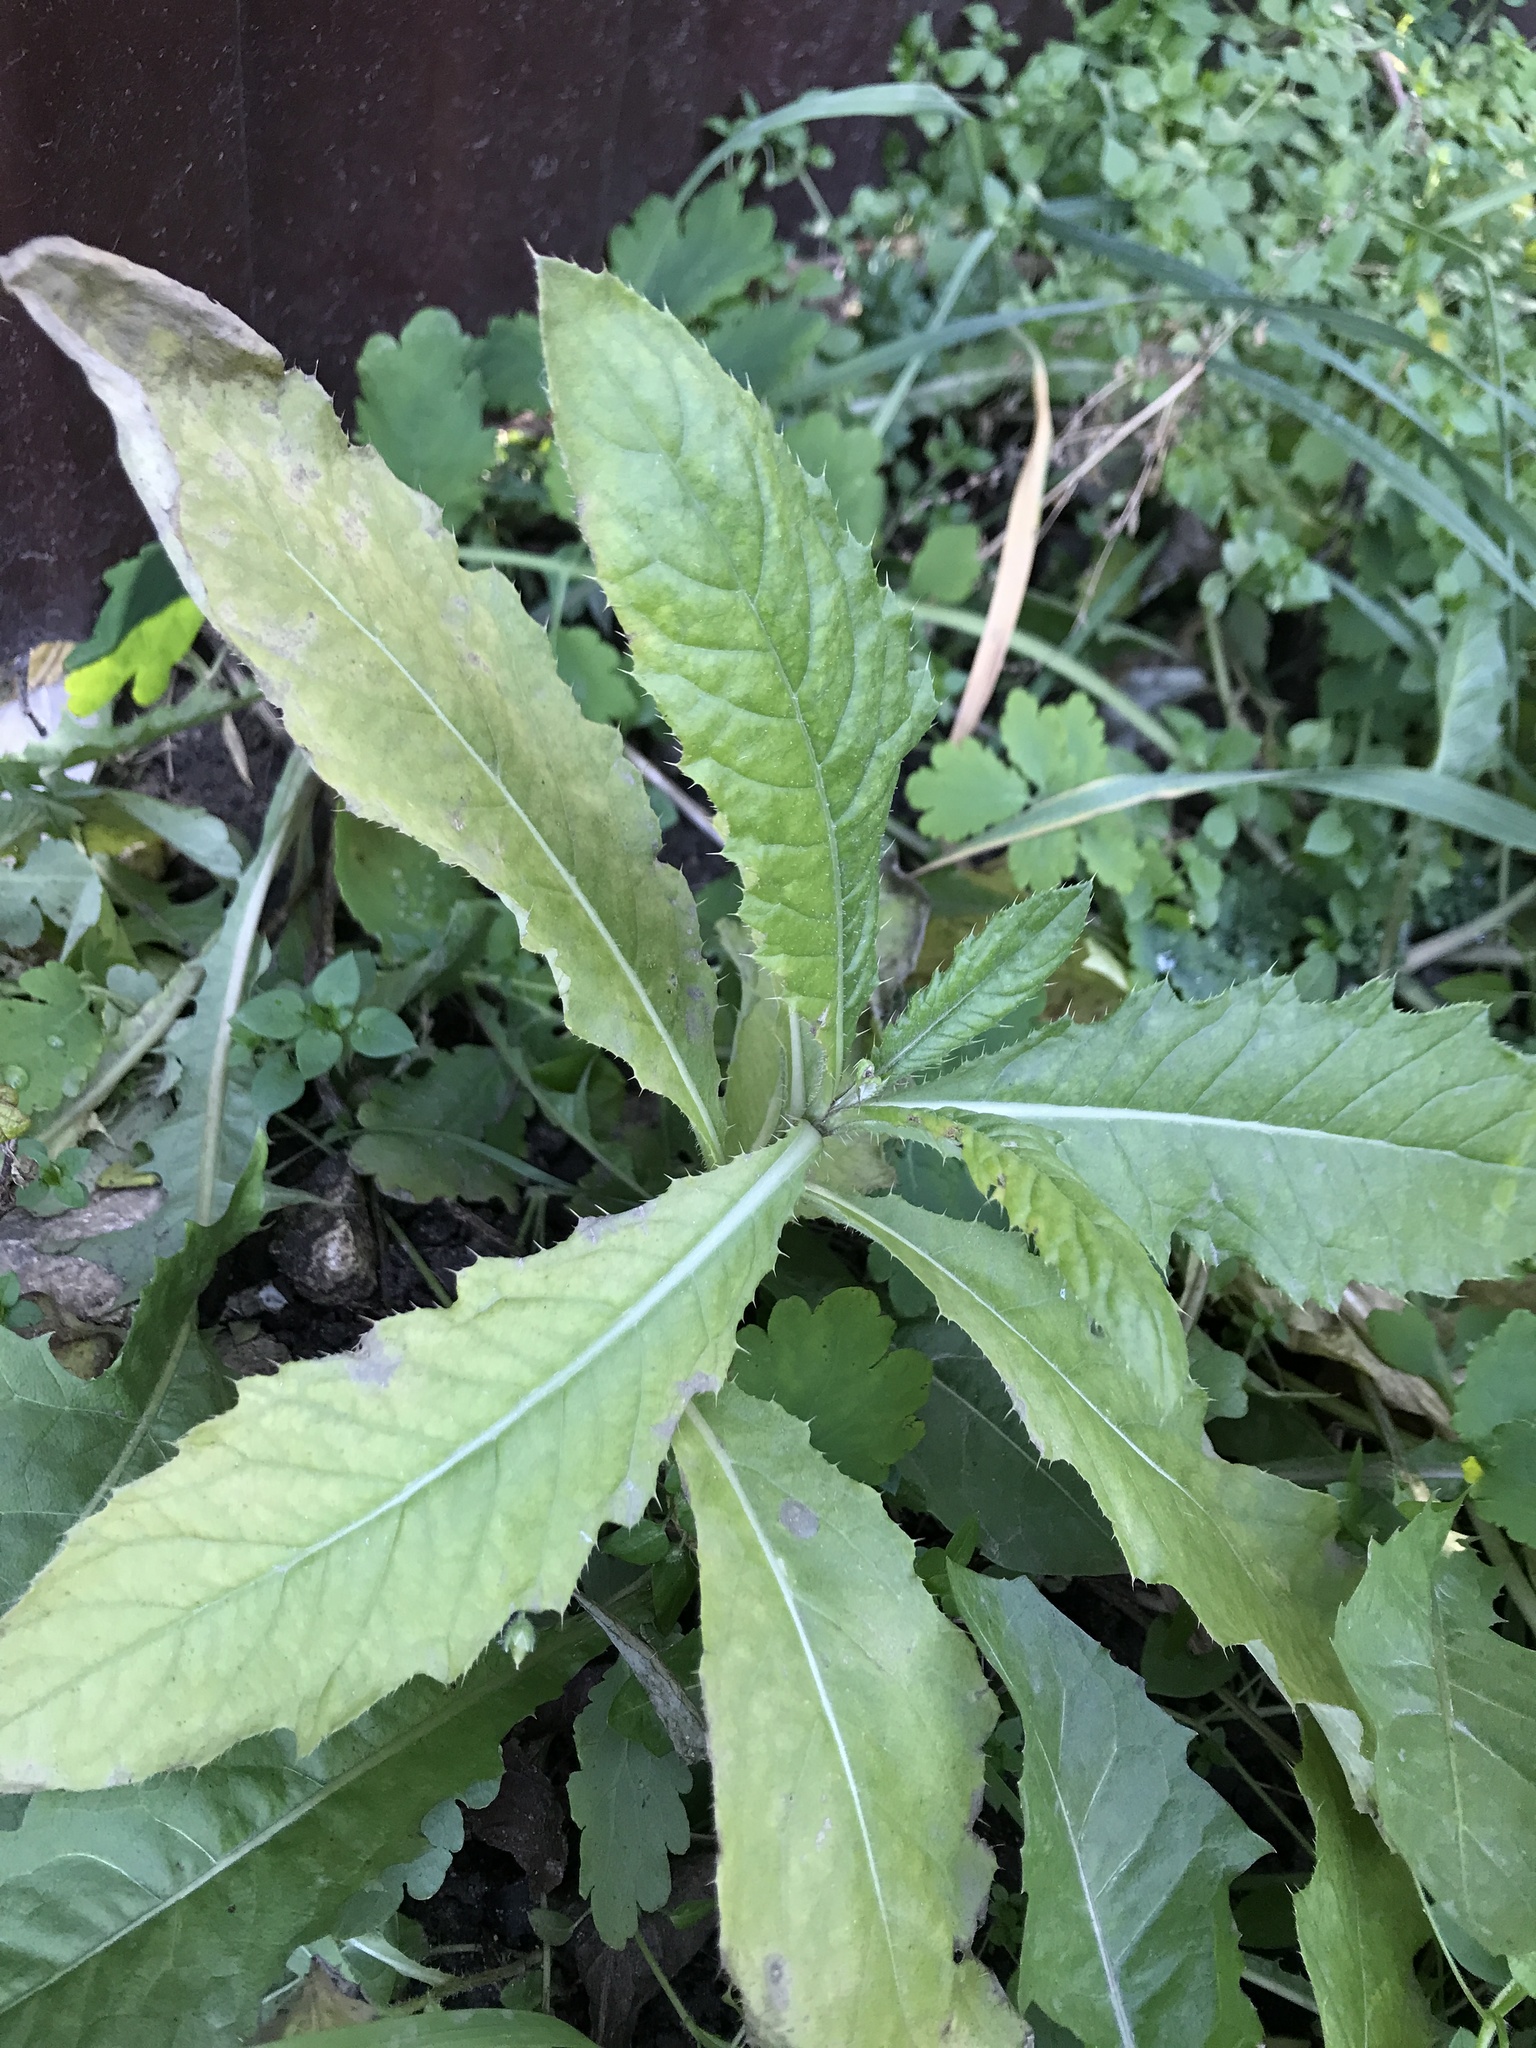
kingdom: Plantae
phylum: Tracheophyta
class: Magnoliopsida
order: Asterales
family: Asteraceae
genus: Cirsium
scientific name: Cirsium arvense
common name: Creeping thistle
